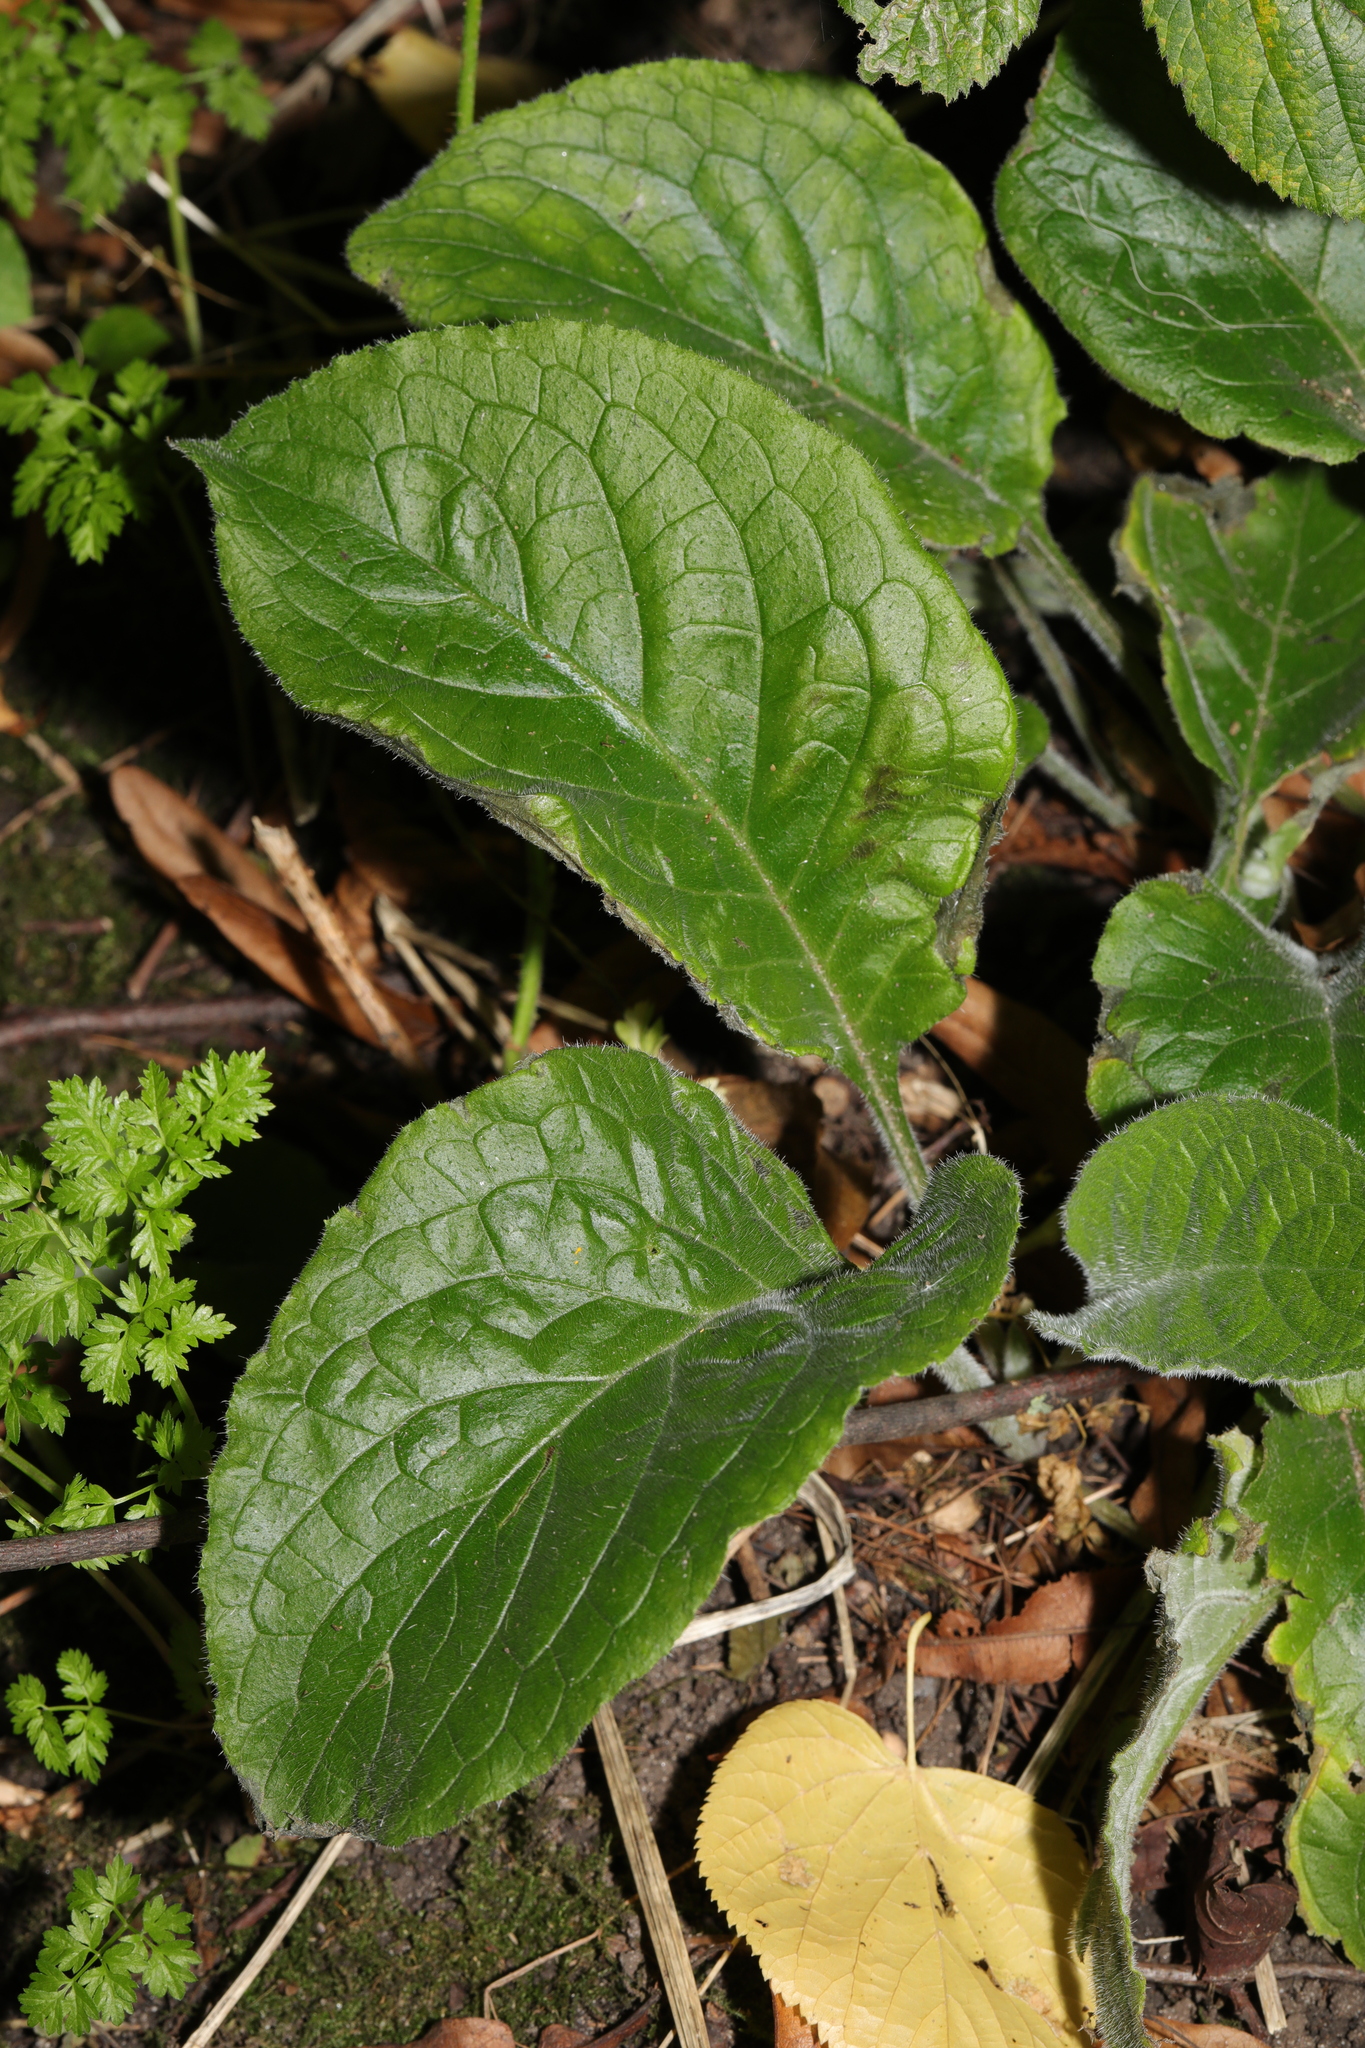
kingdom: Plantae
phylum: Tracheophyta
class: Magnoliopsida
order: Boraginales
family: Boraginaceae
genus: Pentaglottis
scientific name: Pentaglottis sempervirens
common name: Green alkanet
